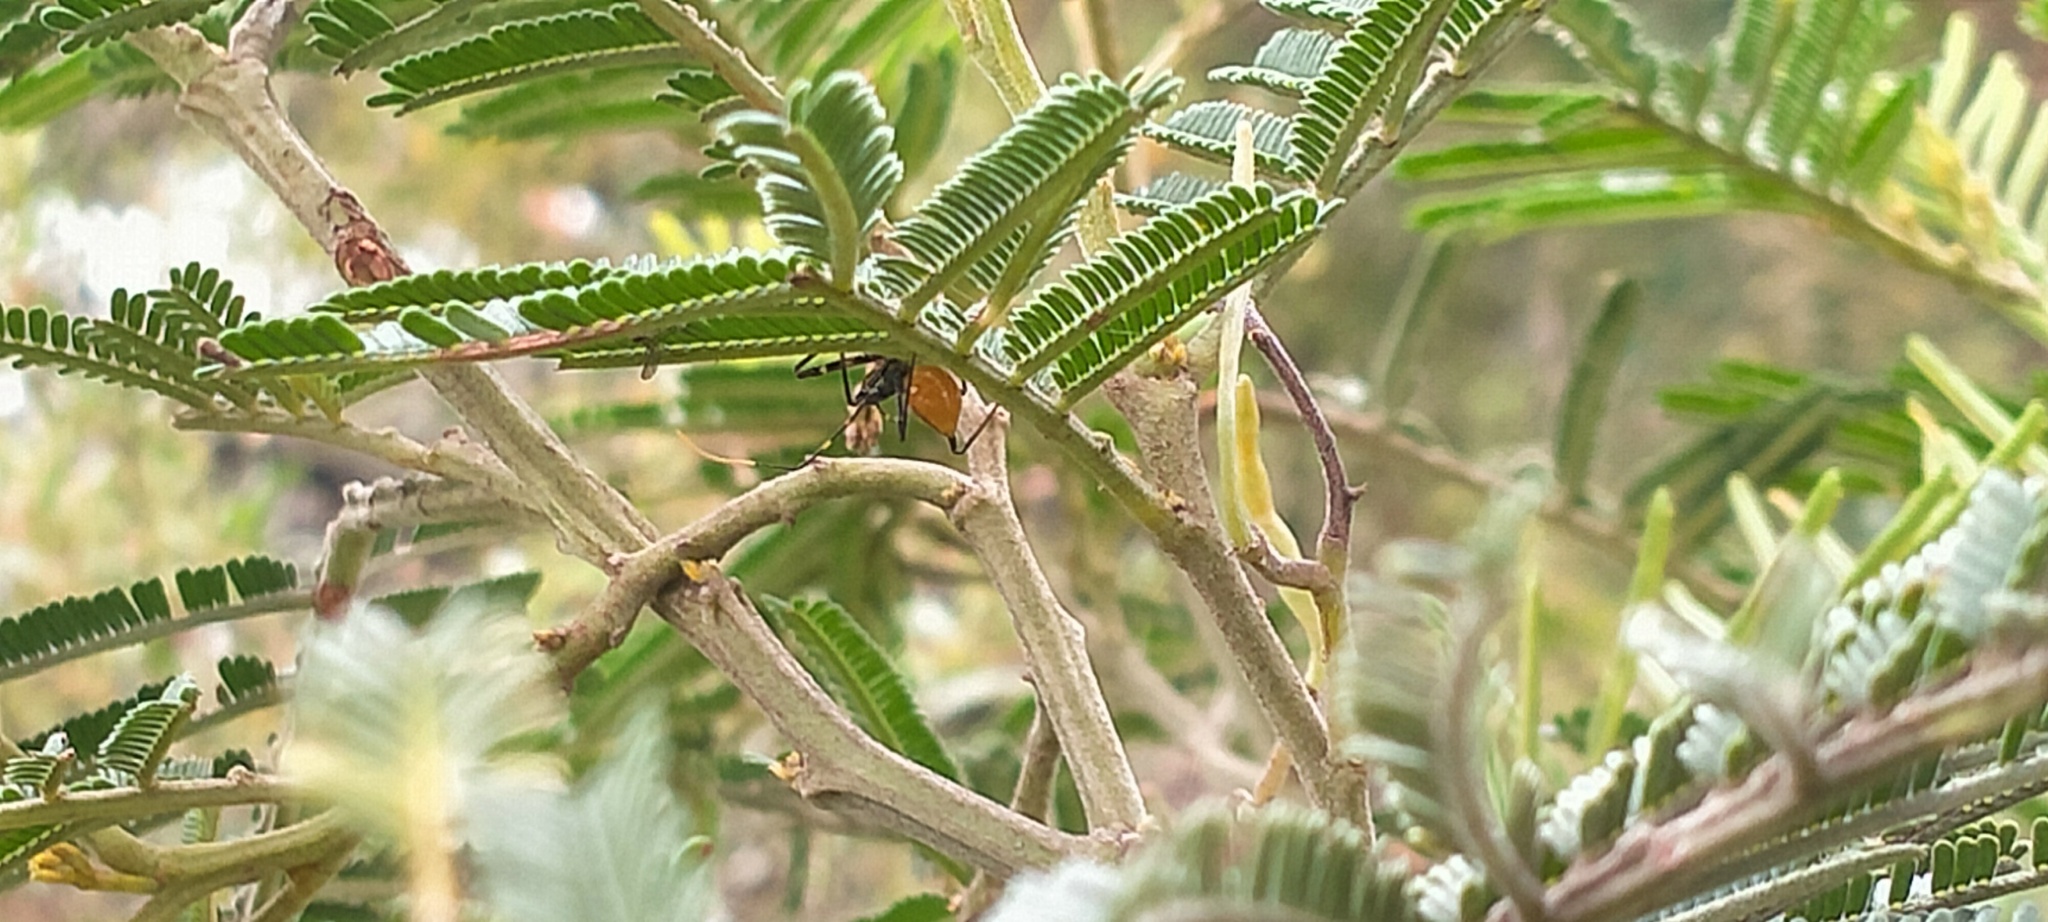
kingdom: Animalia
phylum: Arthropoda
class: Insecta
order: Hemiptera
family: Reduviidae
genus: Pristhesancus
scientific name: Pristhesancus plagipennis
